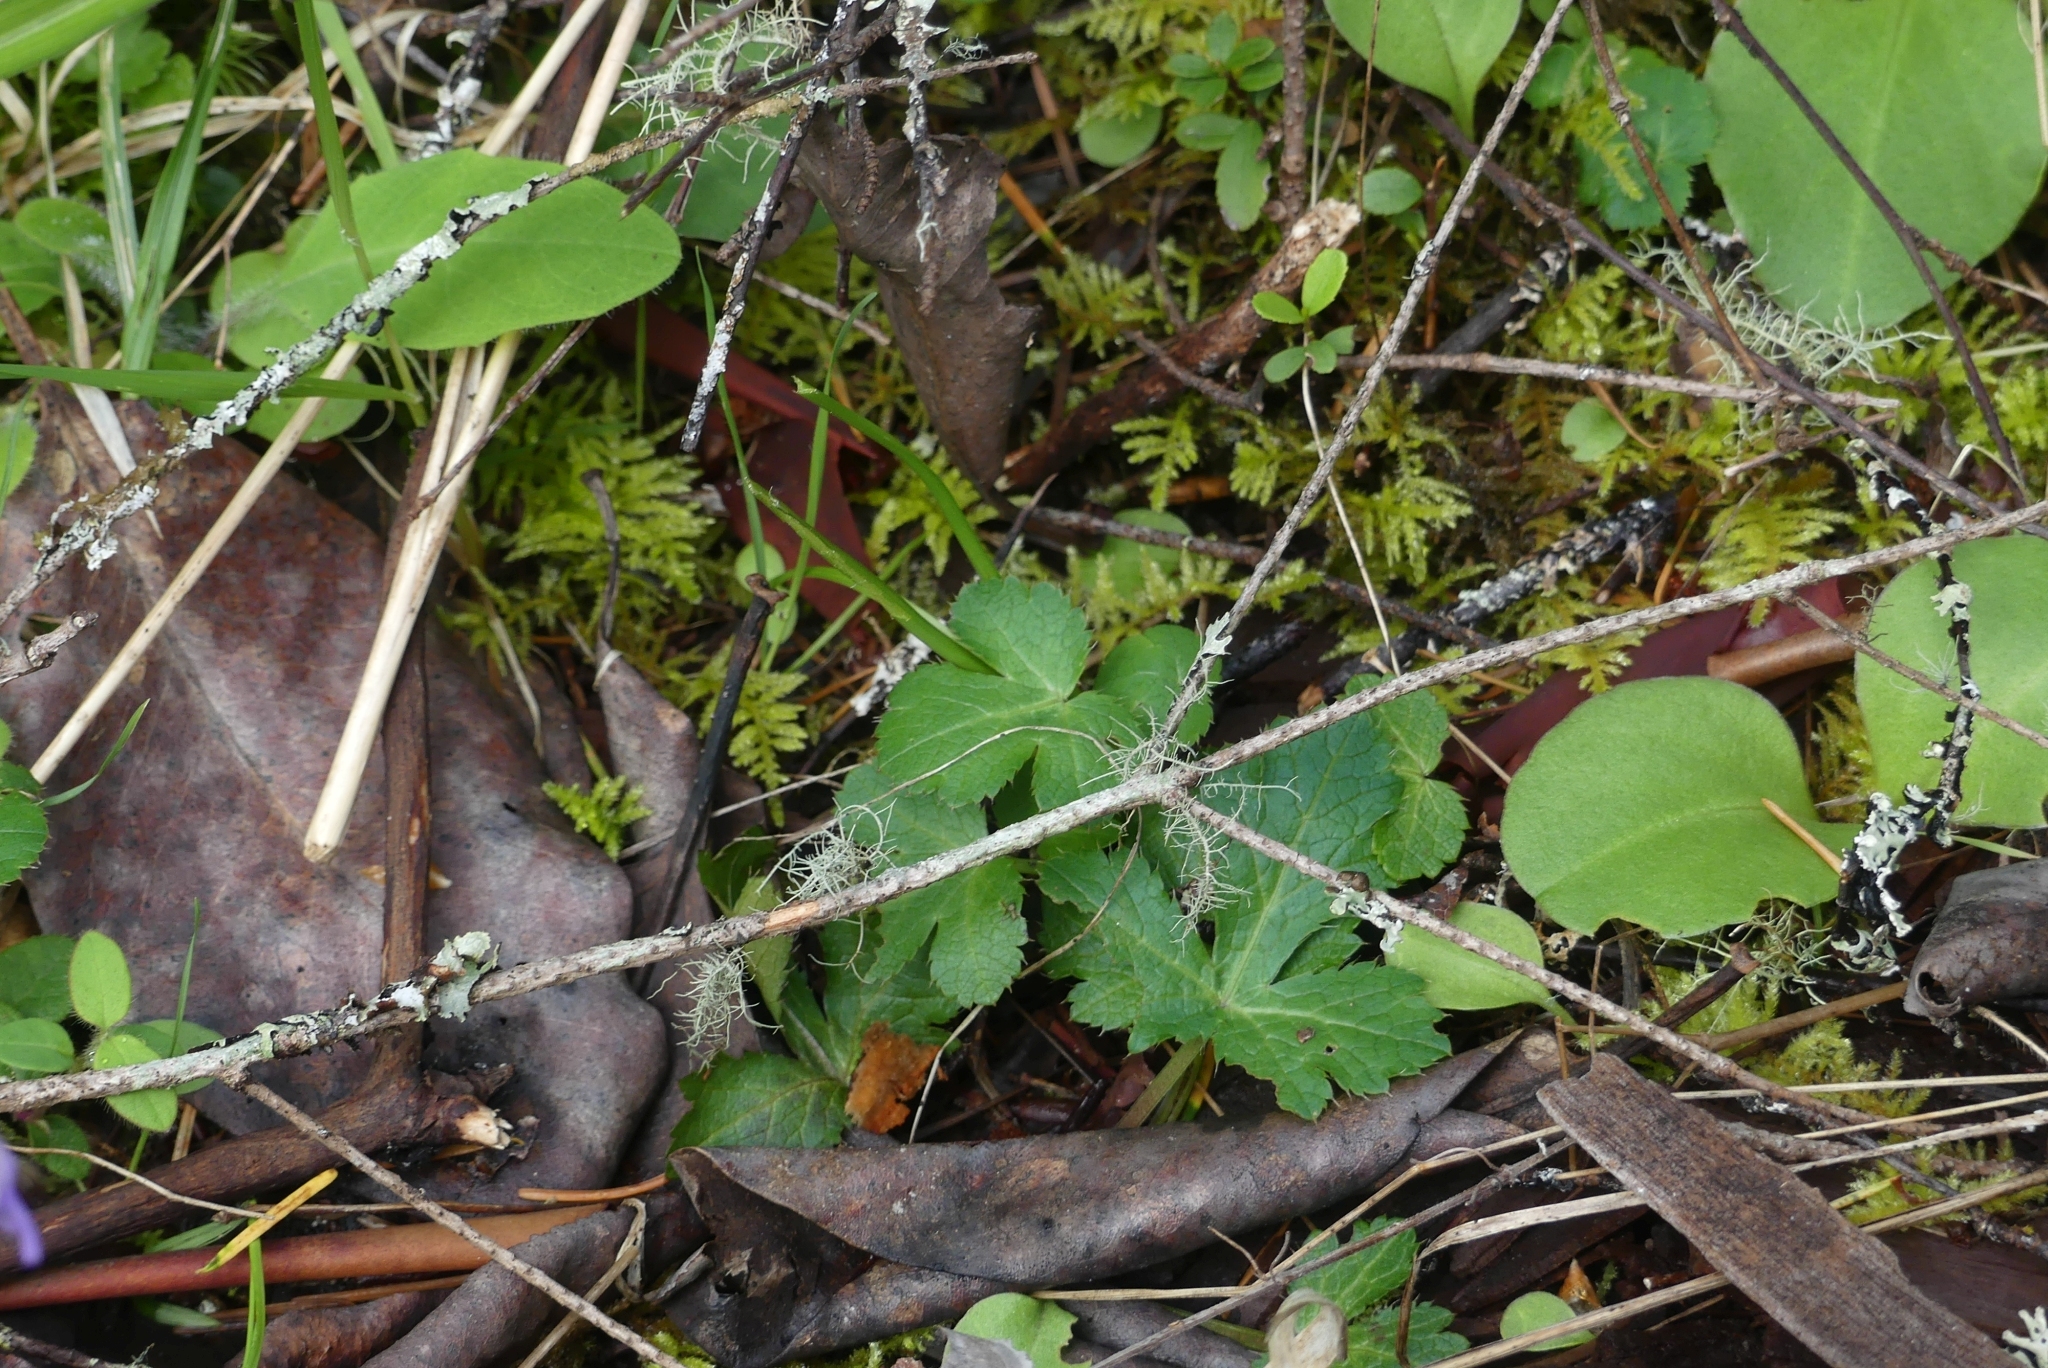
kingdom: Plantae
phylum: Tracheophyta
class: Magnoliopsida
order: Apiales
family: Apiaceae
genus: Sanicula
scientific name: Sanicula crassicaulis
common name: Western snakeroot
